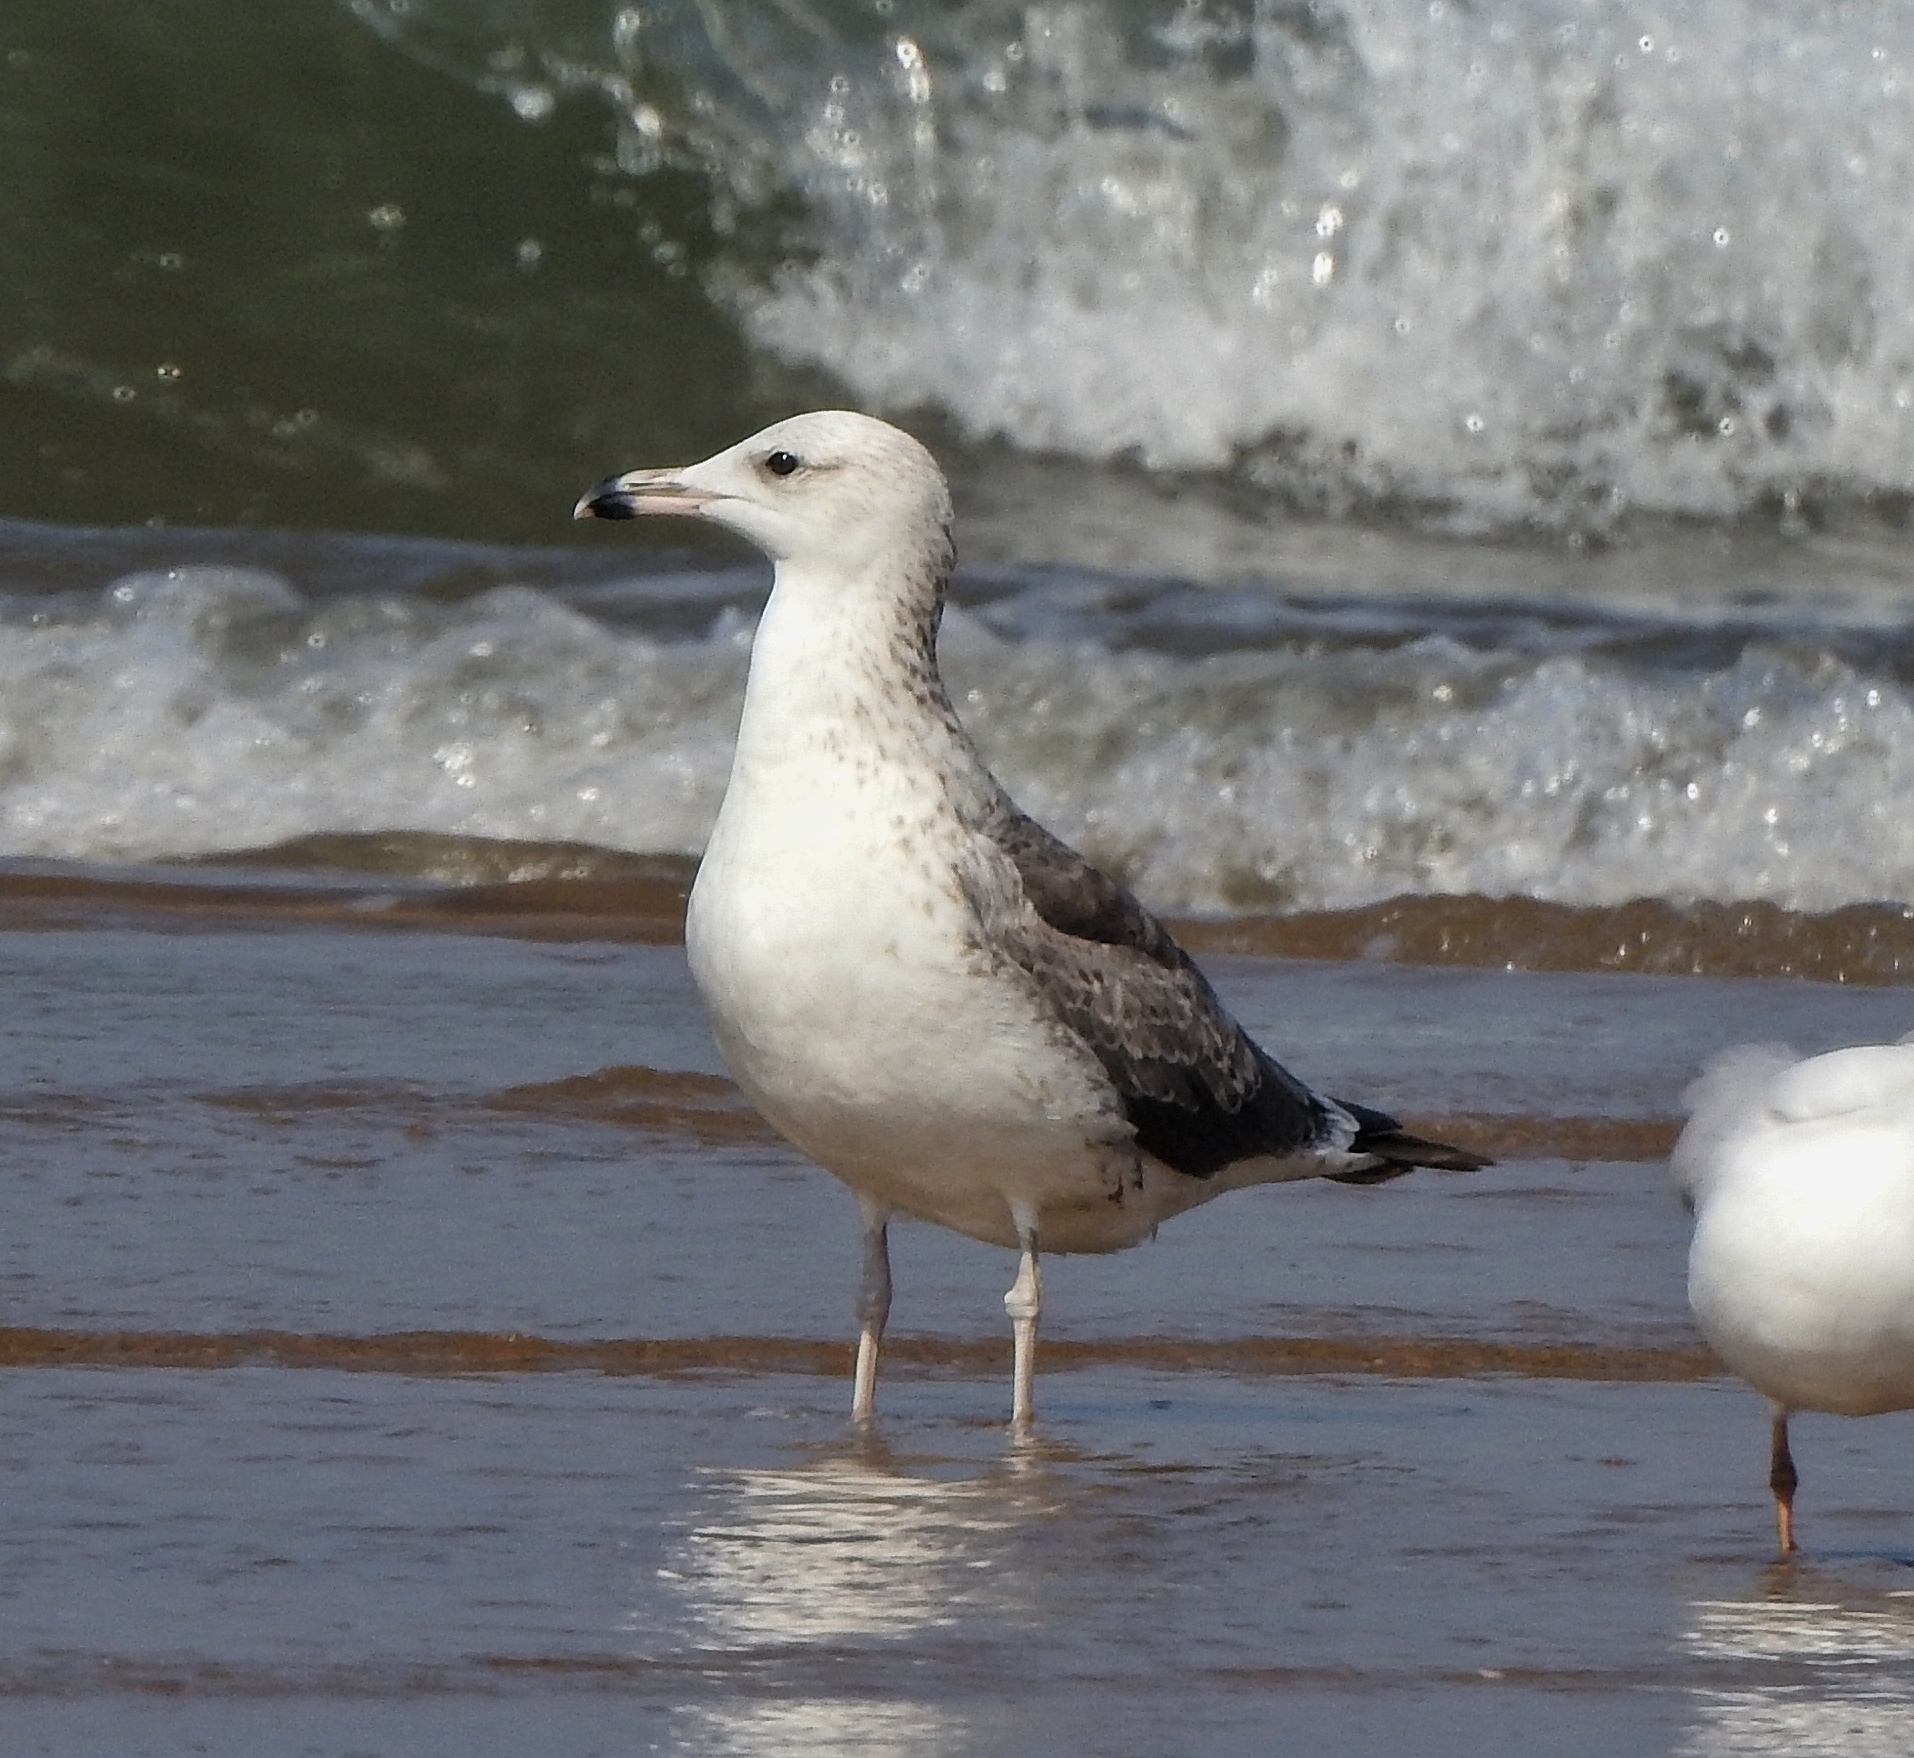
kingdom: Animalia
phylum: Chordata
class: Aves
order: Charadriiformes
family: Laridae
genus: Larus
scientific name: Larus fuscus
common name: Lesser black-backed gull
